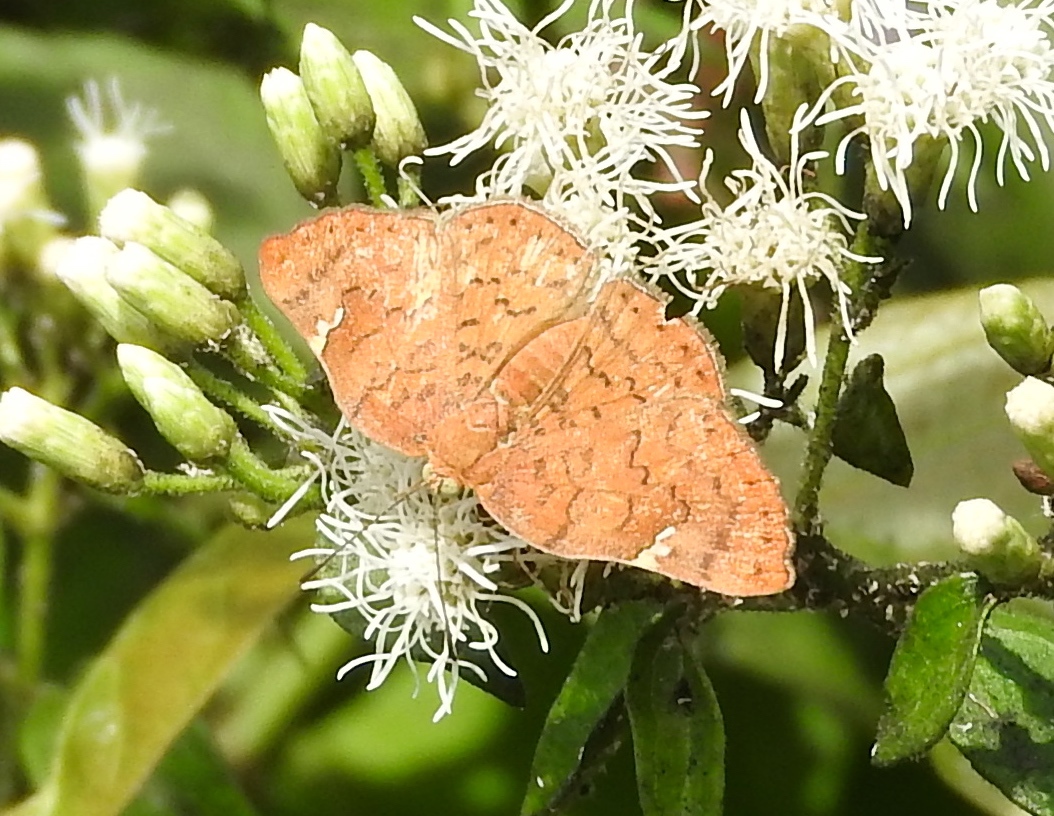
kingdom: Animalia
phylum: Arthropoda
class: Insecta
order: Lepidoptera
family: Riodinidae
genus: Curvie
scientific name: Curvie emesia
